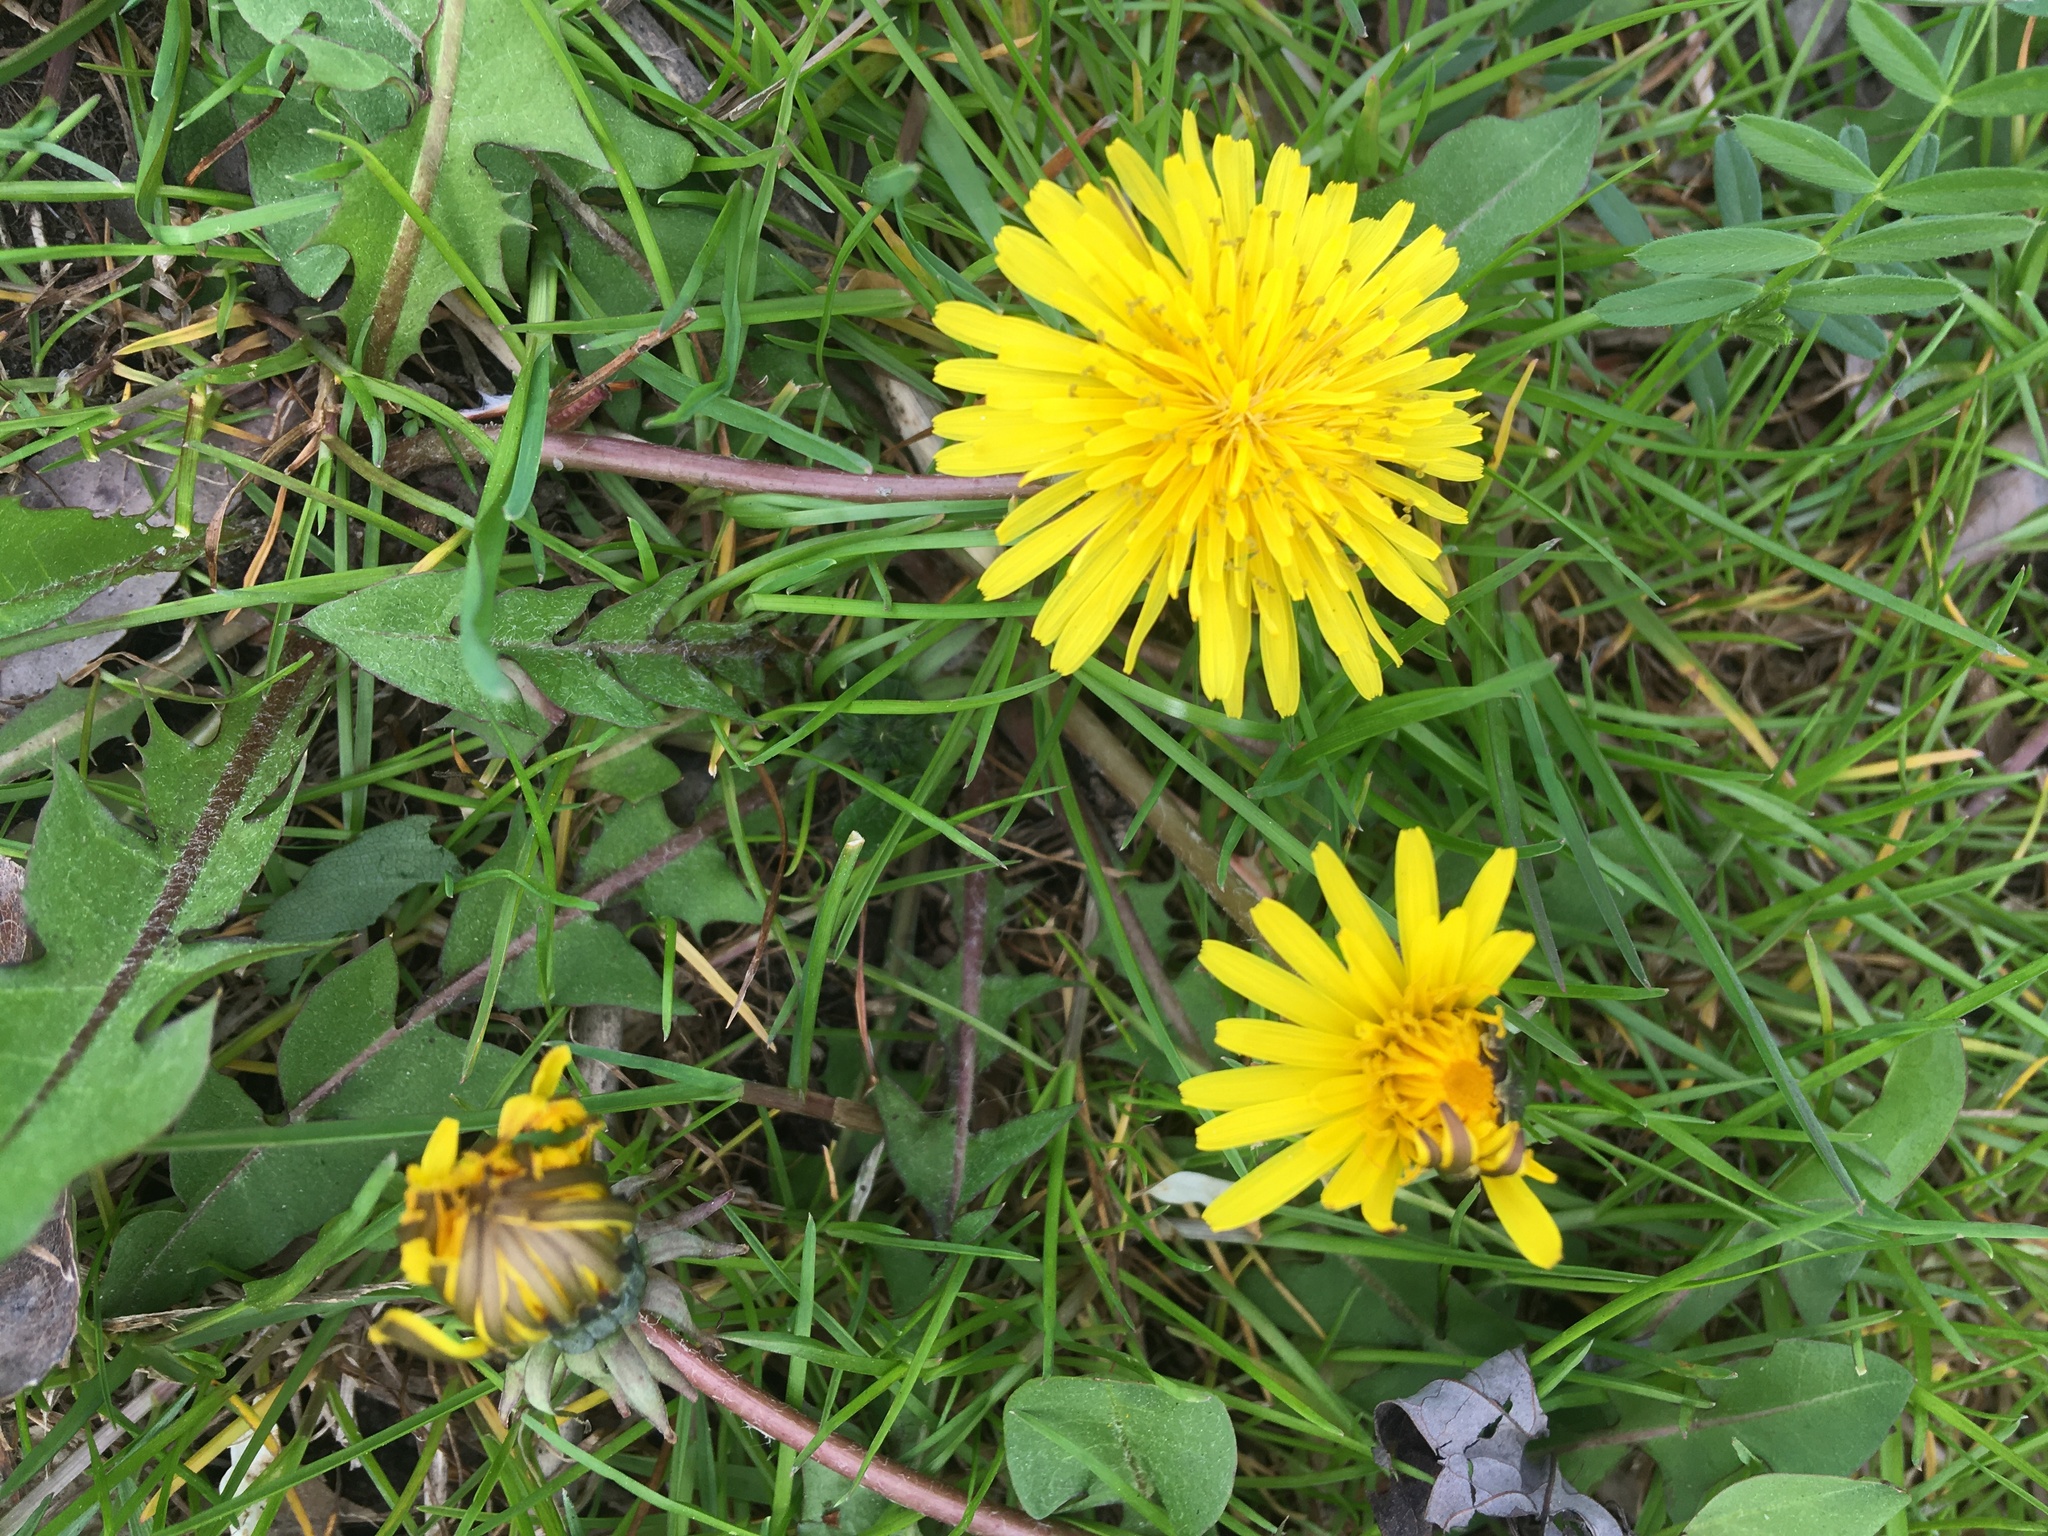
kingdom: Plantae
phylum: Tracheophyta
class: Magnoliopsida
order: Asterales
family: Asteraceae
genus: Taraxacum
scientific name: Taraxacum officinale
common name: Common dandelion
